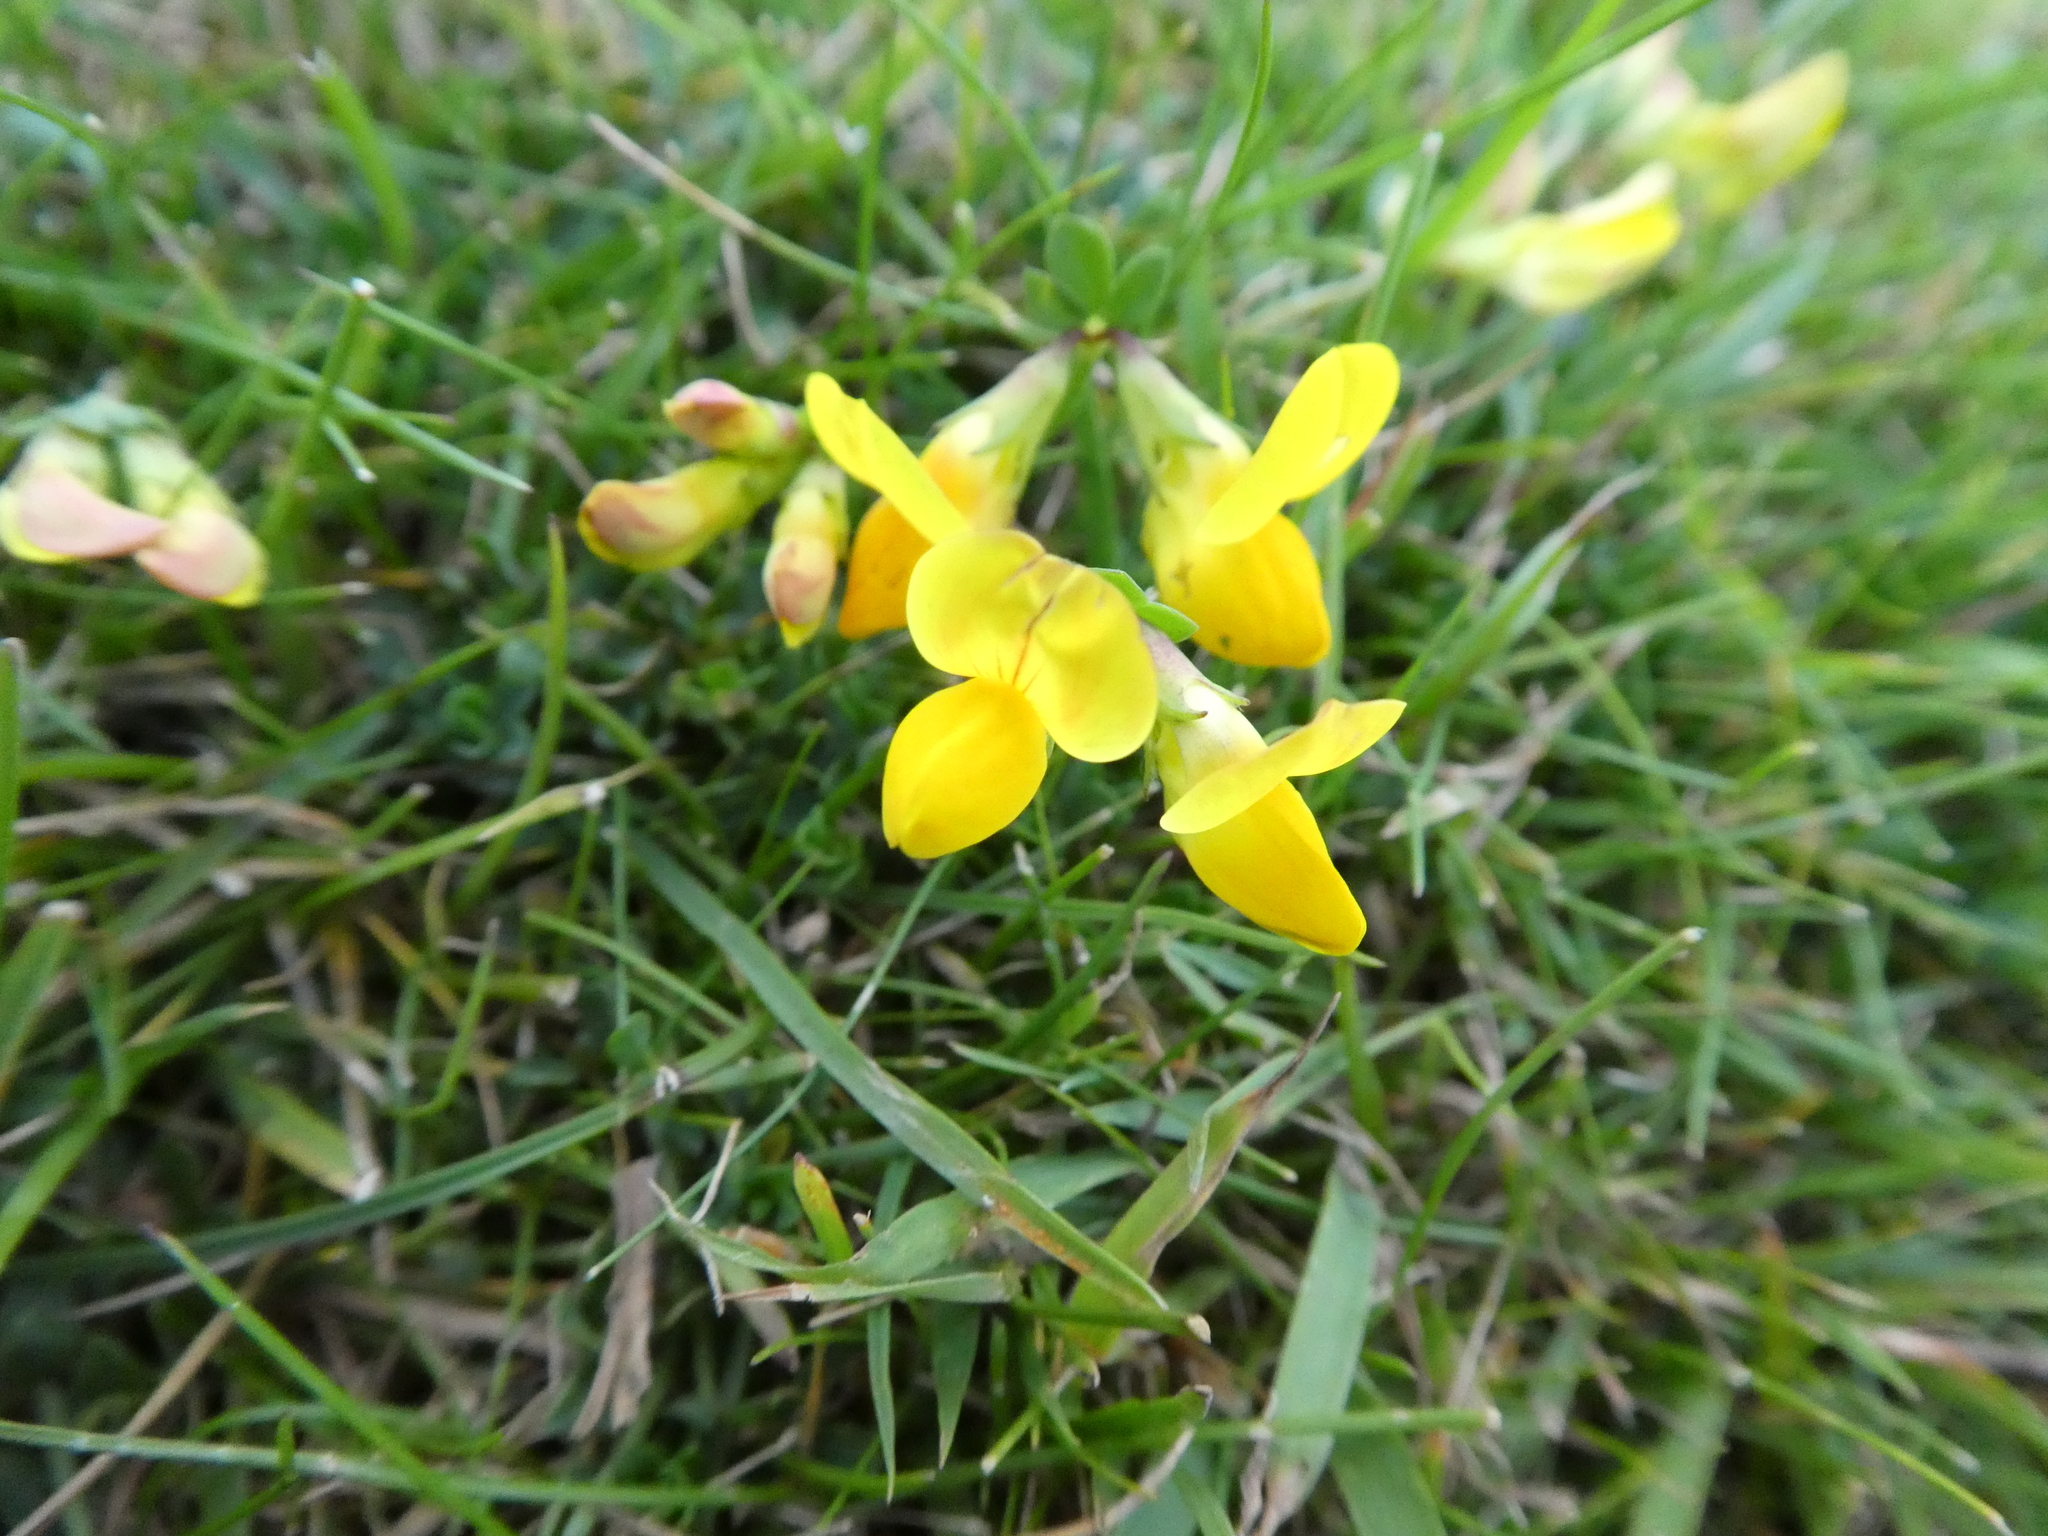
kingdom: Plantae
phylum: Tracheophyta
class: Magnoliopsida
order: Fabales
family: Fabaceae
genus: Lotus
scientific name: Lotus corniculatus
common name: Common bird's-foot-trefoil
